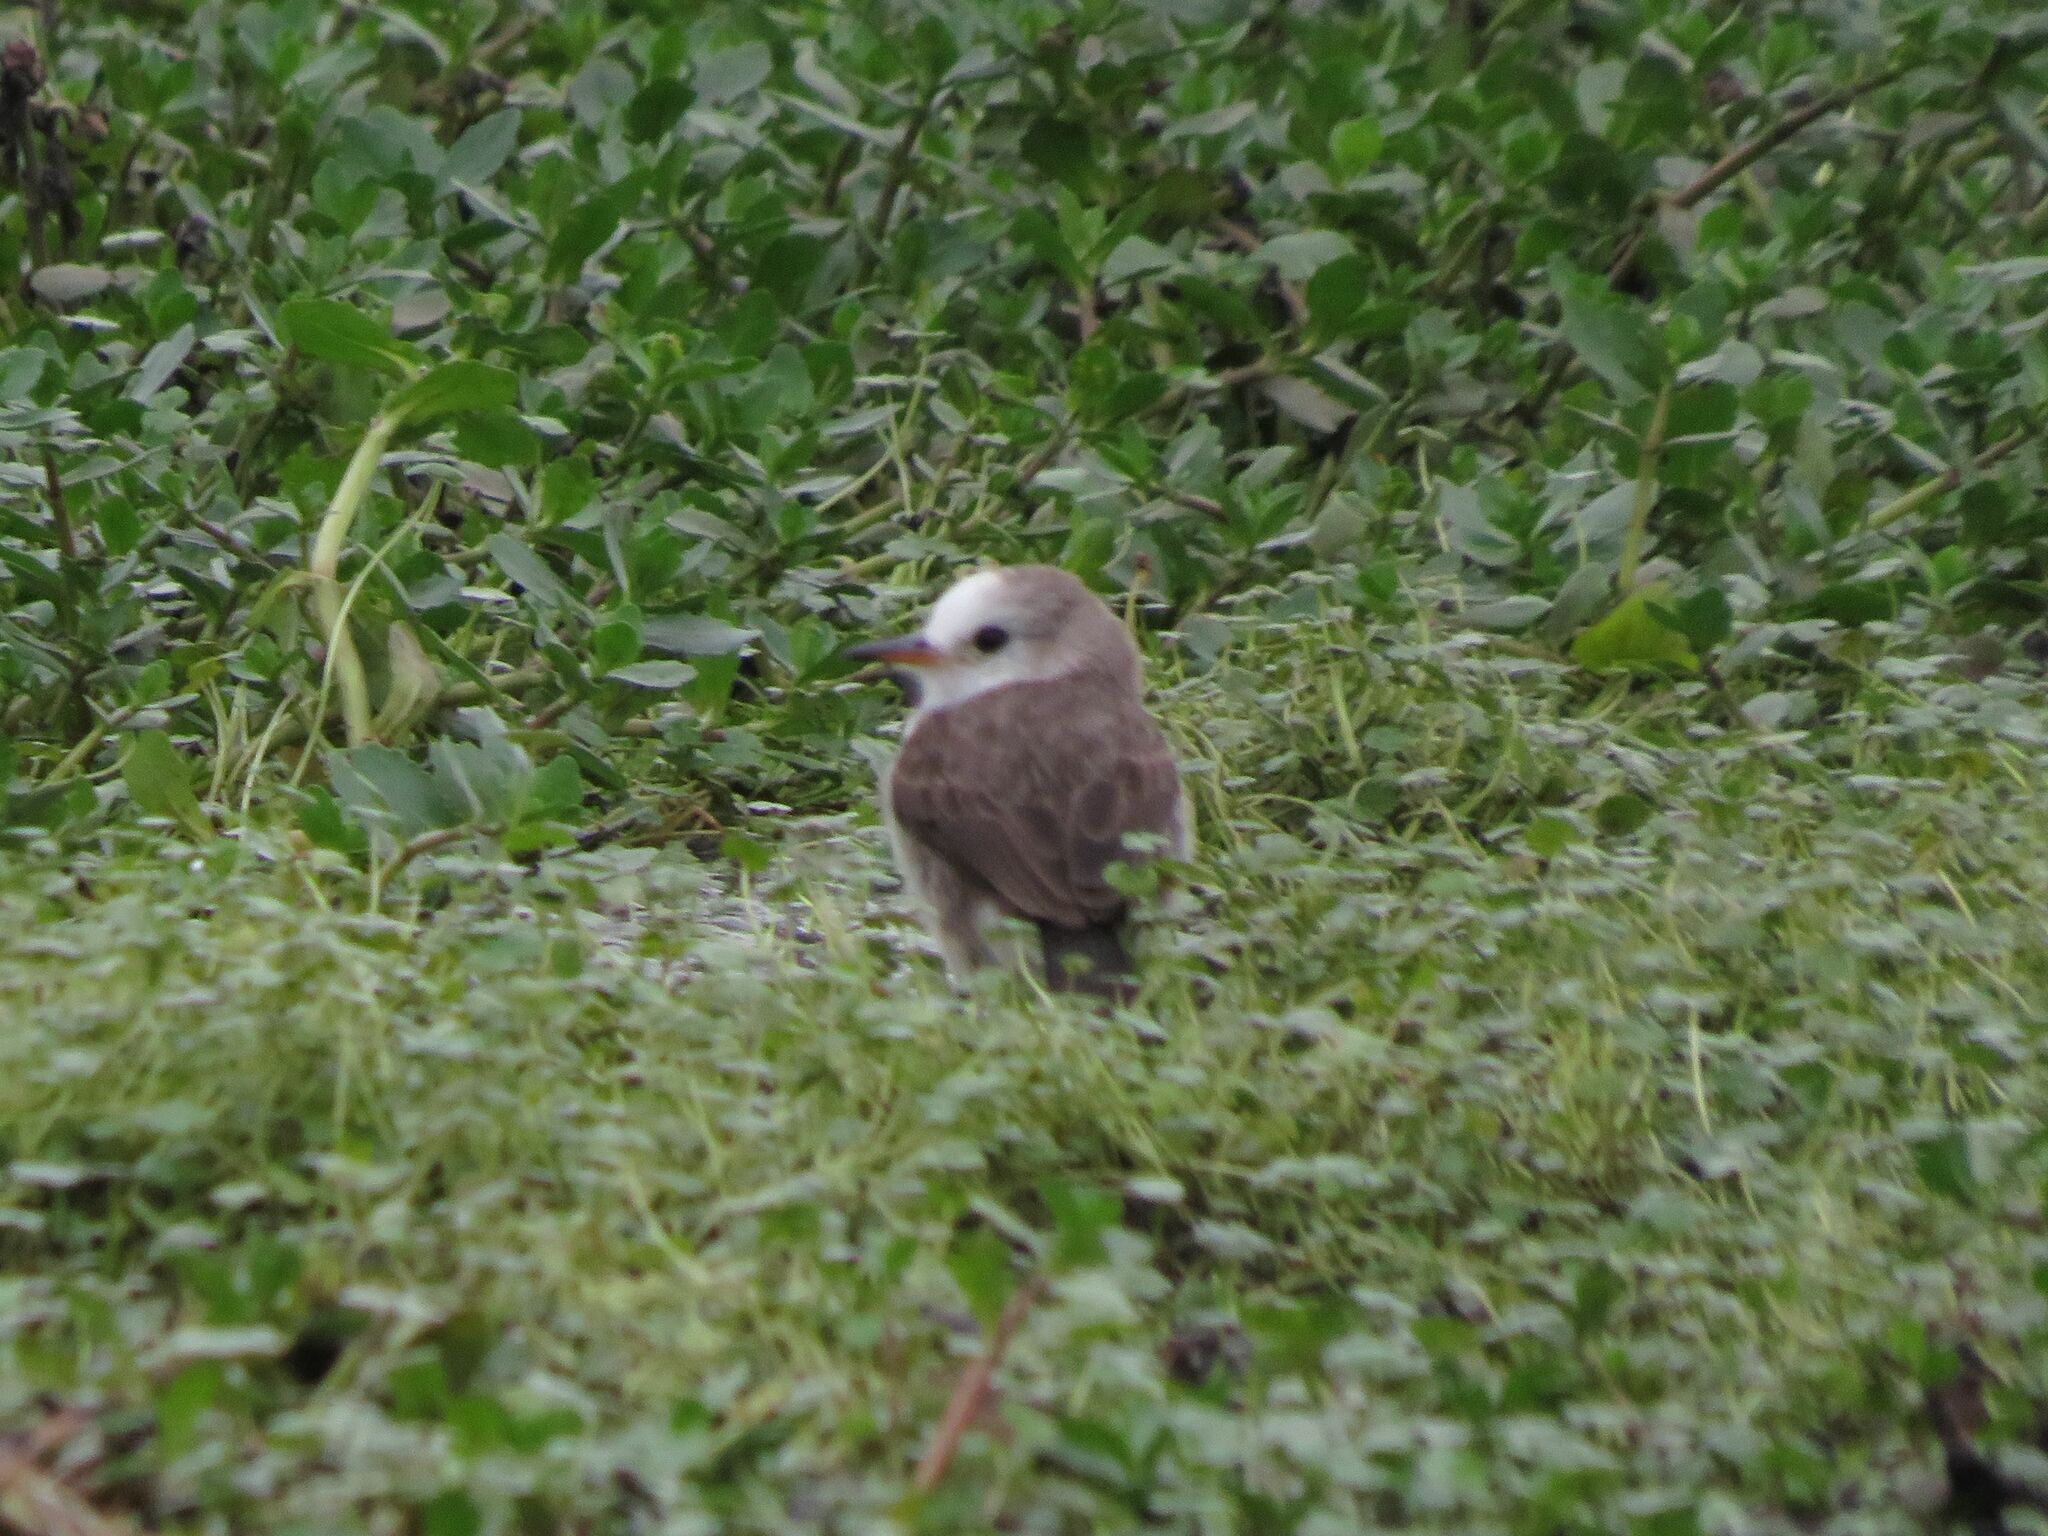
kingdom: Animalia
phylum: Chordata
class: Aves
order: Passeriformes
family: Tyrannidae
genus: Arundinicola
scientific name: Arundinicola leucocephala
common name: White-headed marsh tyrant
